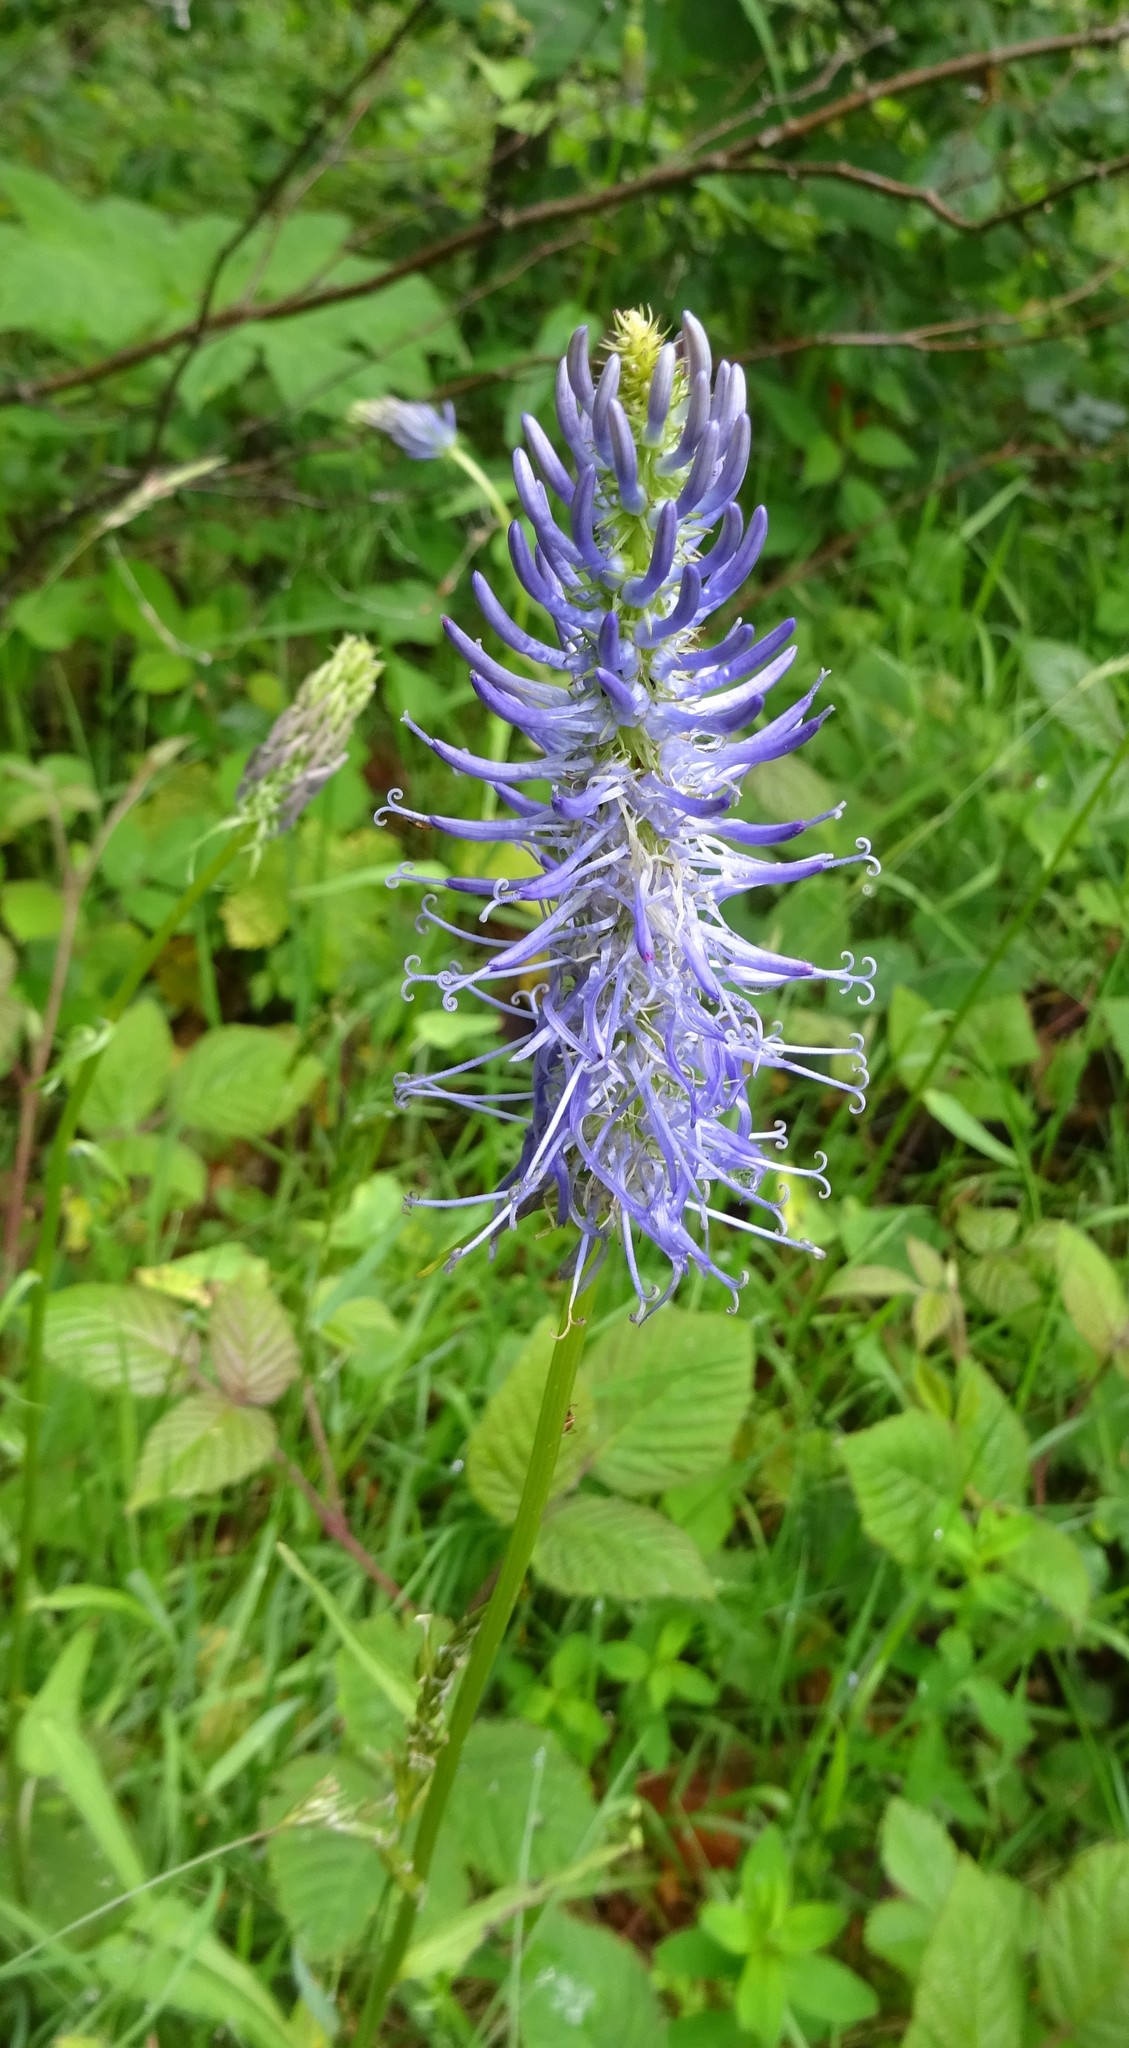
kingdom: Plantae
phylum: Tracheophyta
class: Magnoliopsida
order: Asterales
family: Campanulaceae
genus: Phyteuma
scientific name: Phyteuma spicatum
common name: Spiked rampion
